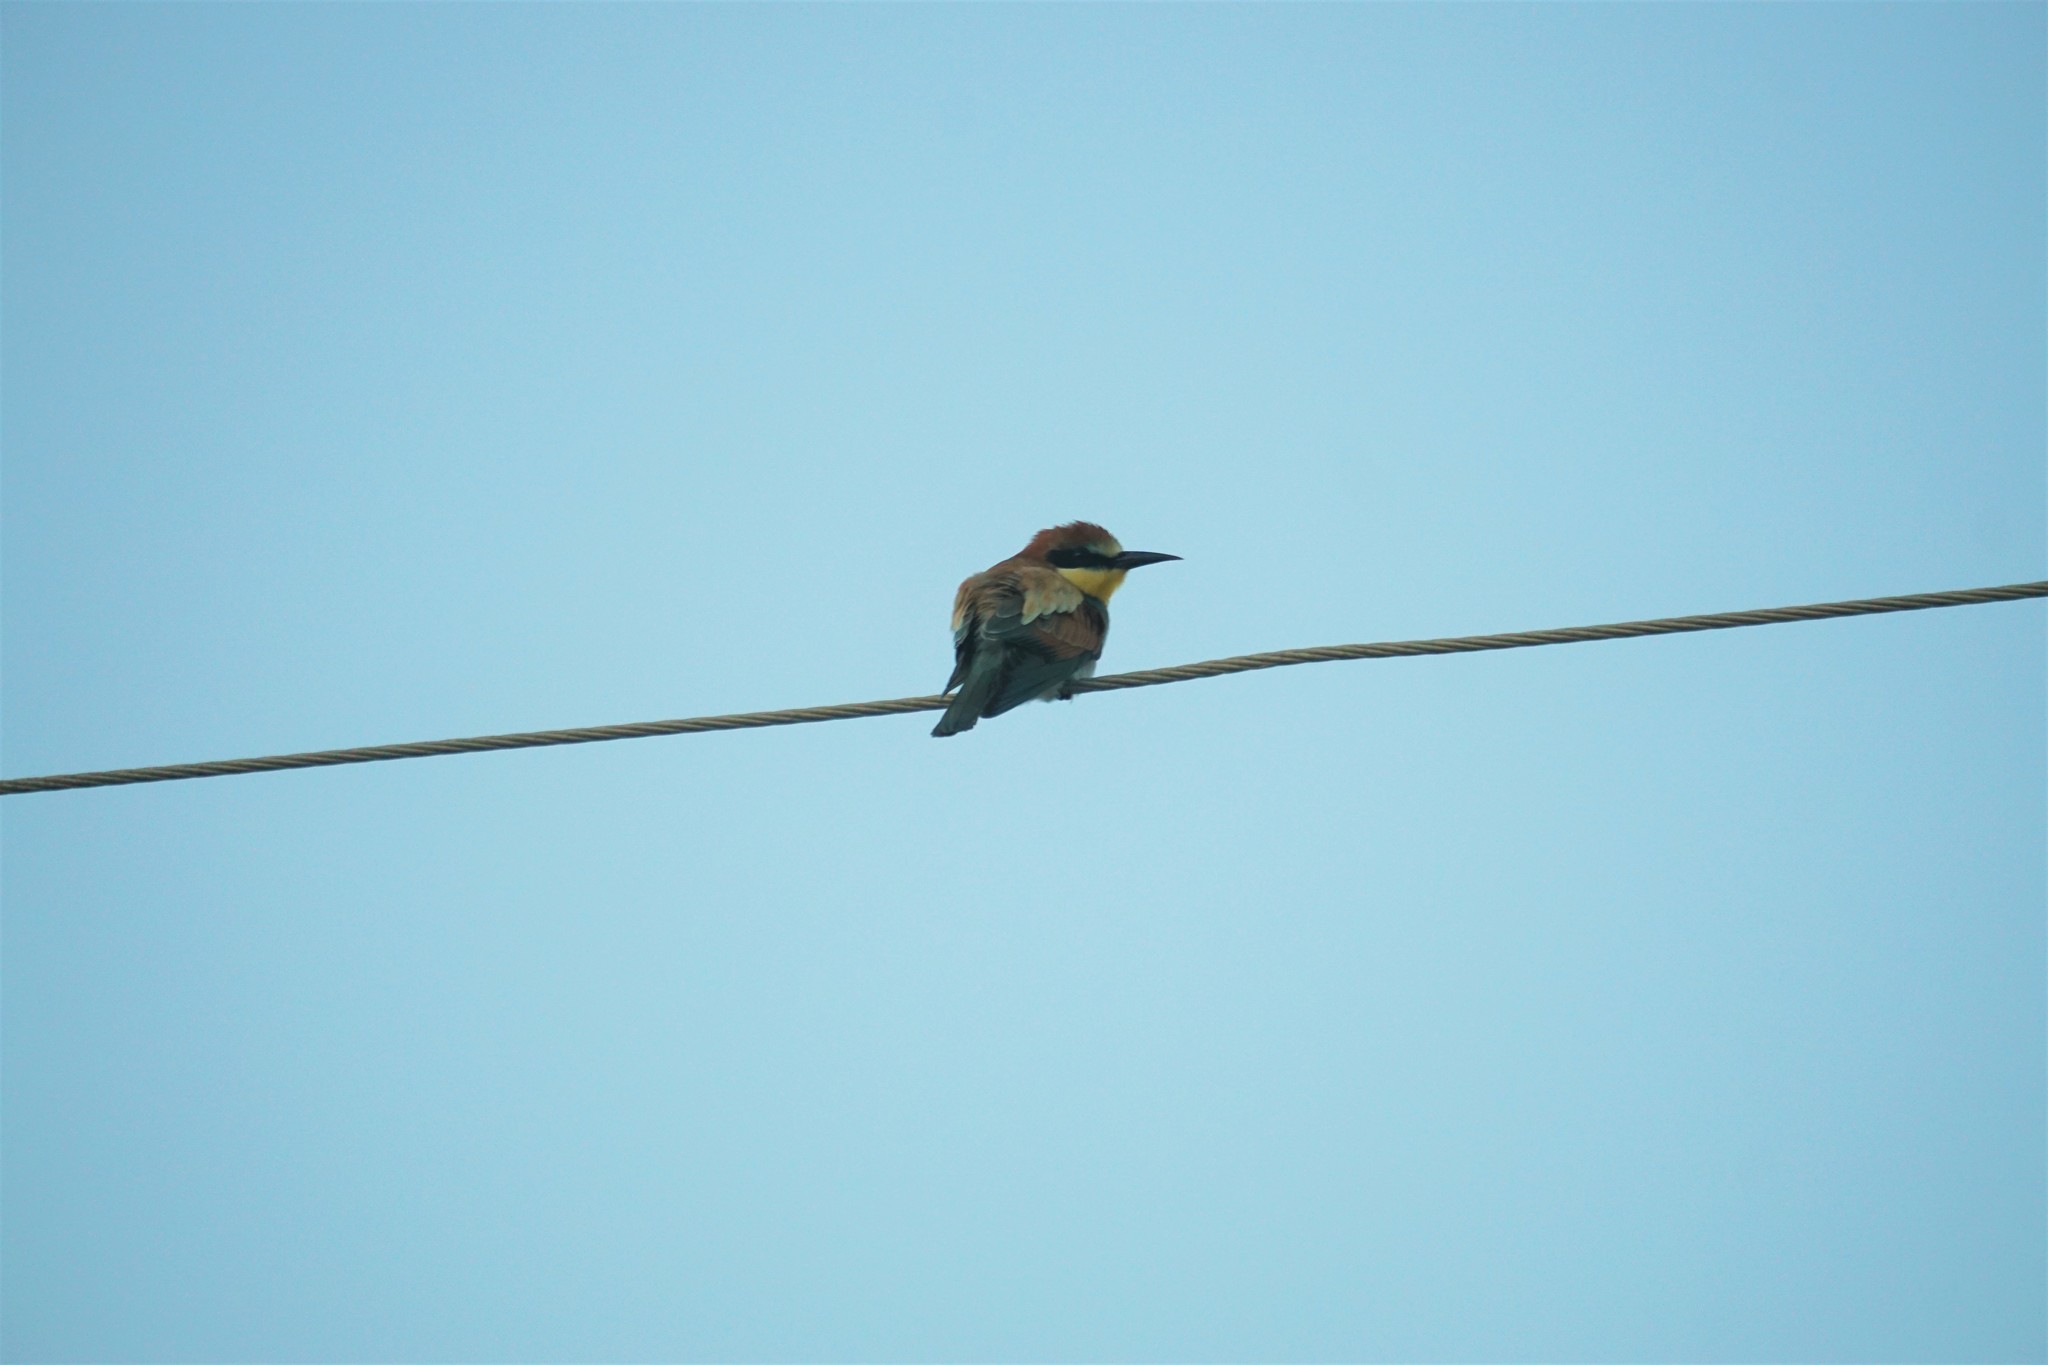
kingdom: Animalia
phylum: Chordata
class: Aves
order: Coraciiformes
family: Meropidae
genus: Merops
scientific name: Merops apiaster
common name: European bee-eater
